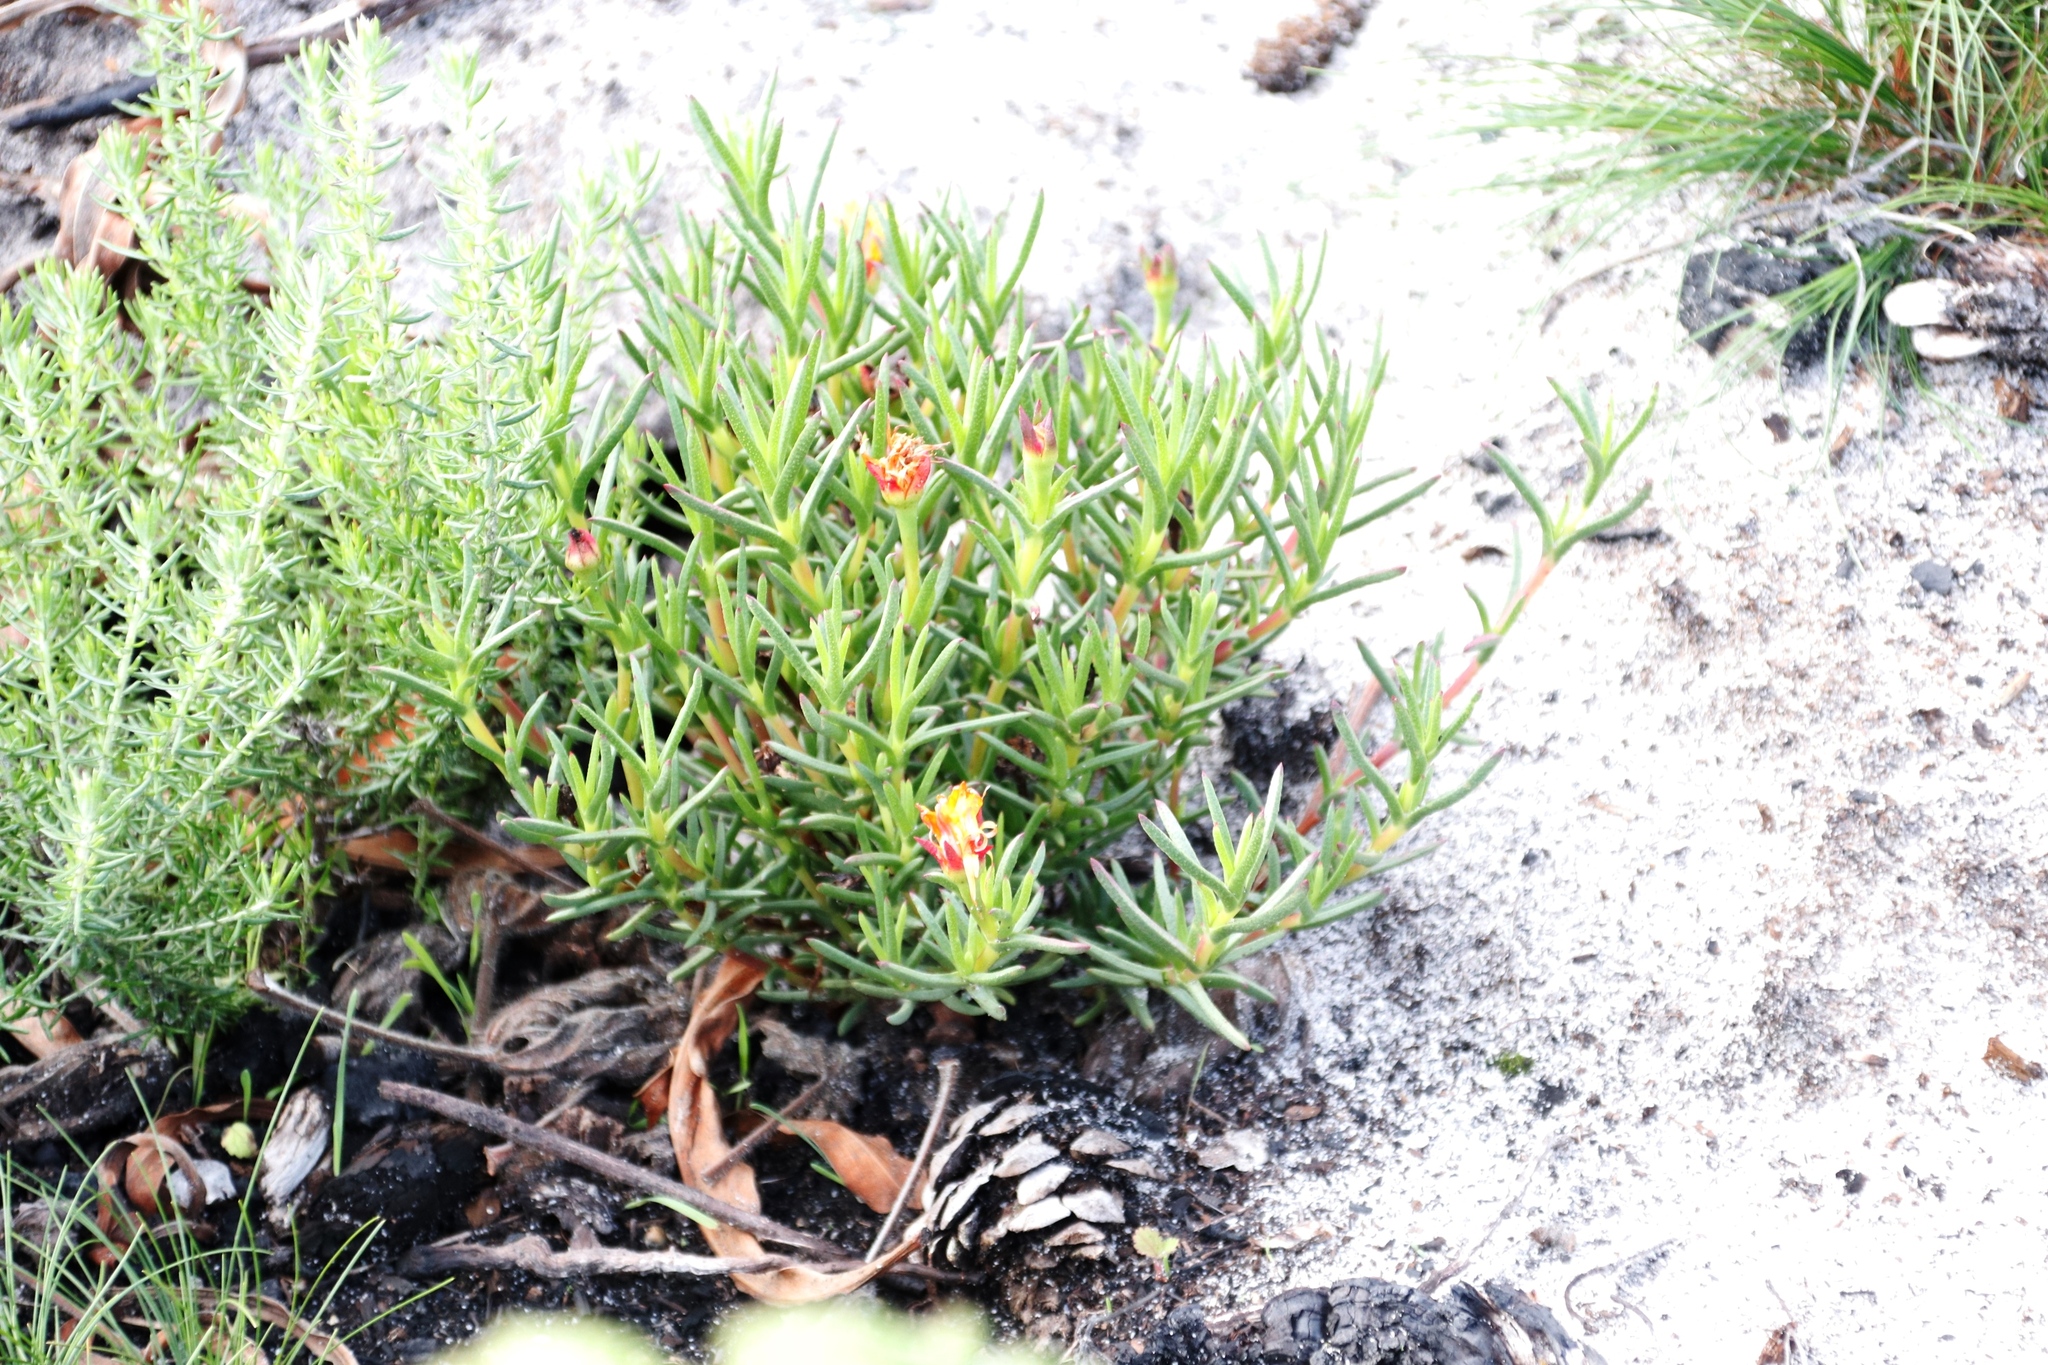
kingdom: Plantae
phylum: Tracheophyta
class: Magnoliopsida
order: Caryophyllales
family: Aizoaceae
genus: Lampranthus
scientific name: Lampranthus bicolor
